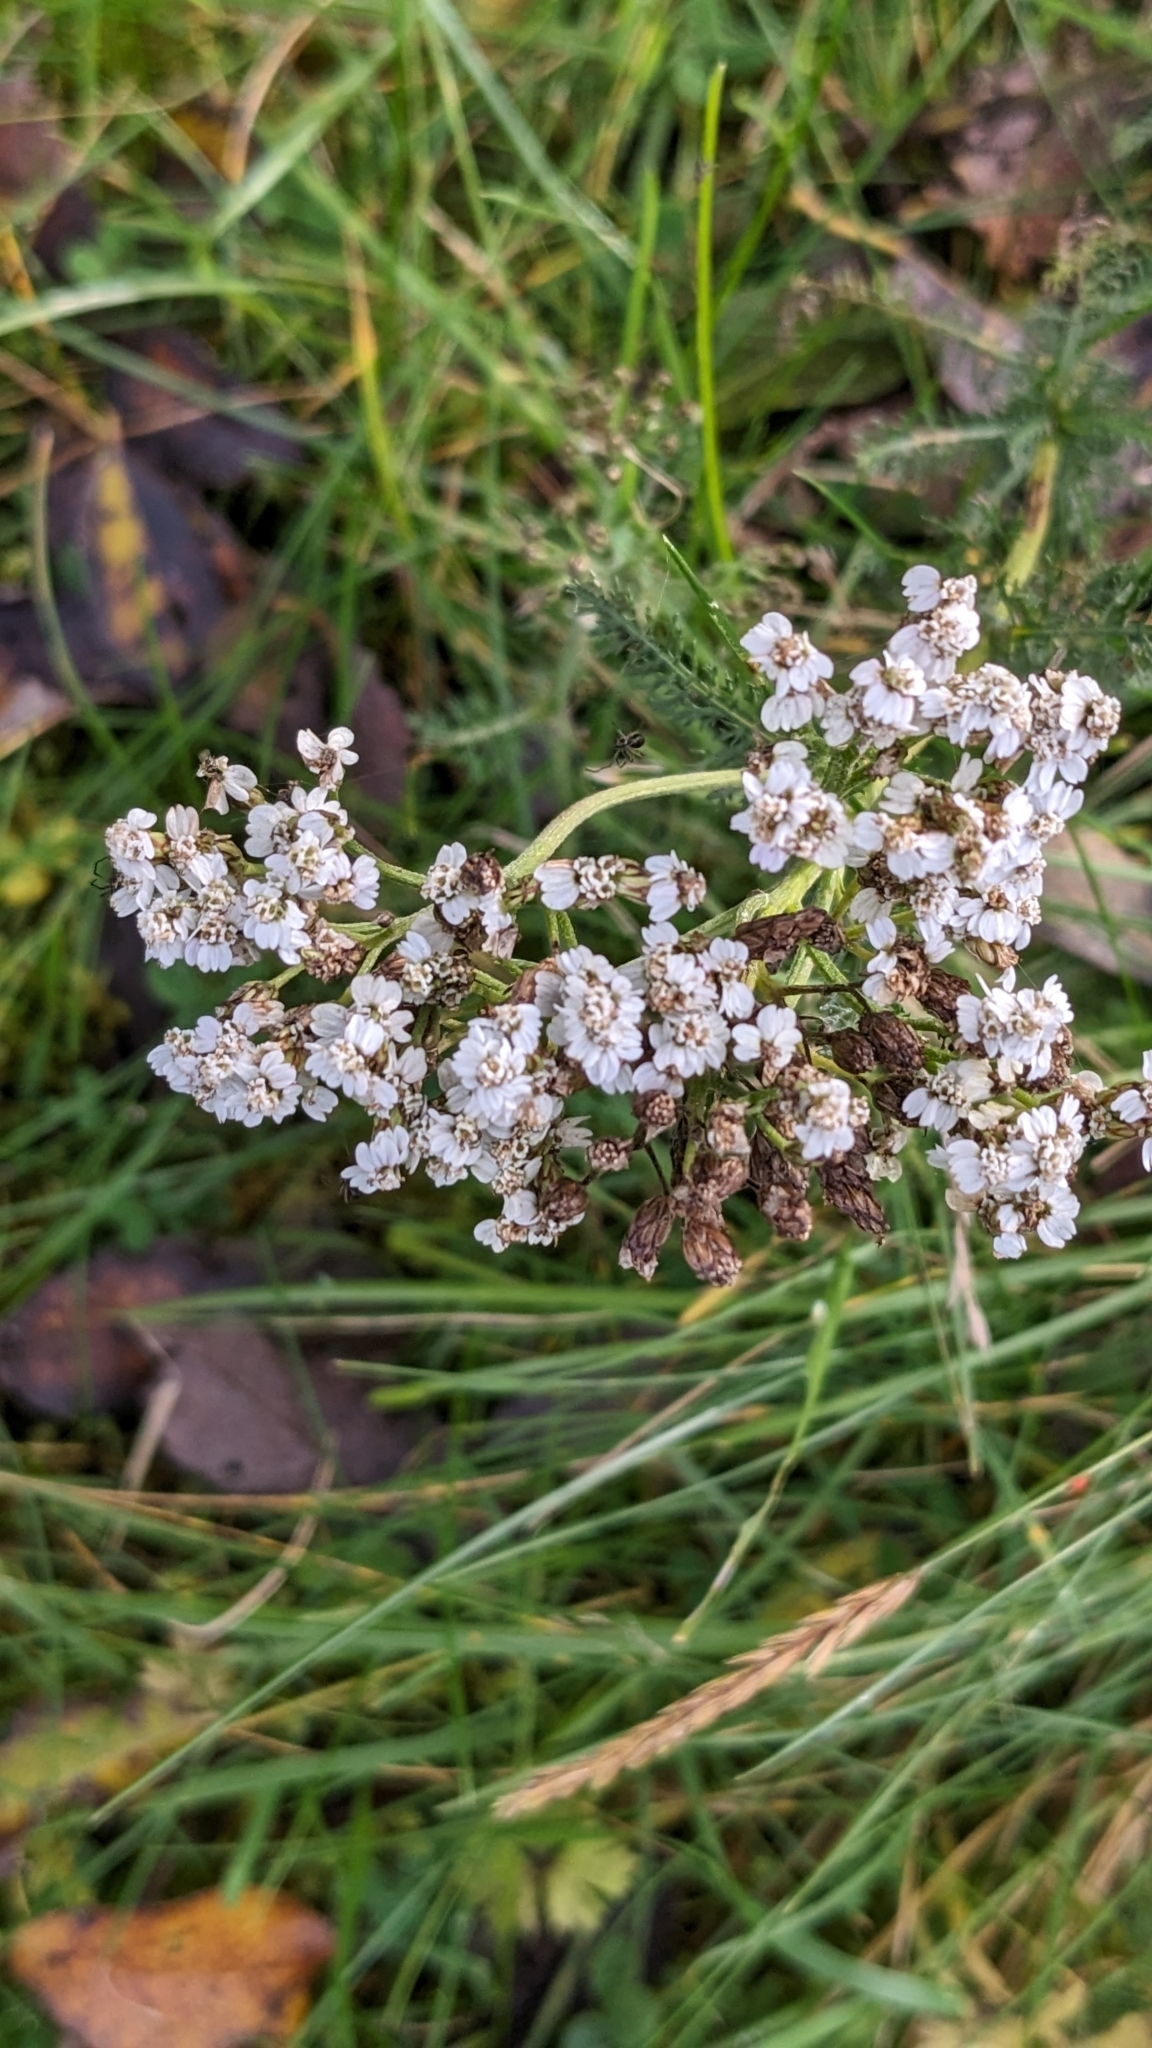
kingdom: Plantae
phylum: Tracheophyta
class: Magnoliopsida
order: Asterales
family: Asteraceae
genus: Achillea
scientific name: Achillea millefolium
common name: Yarrow
